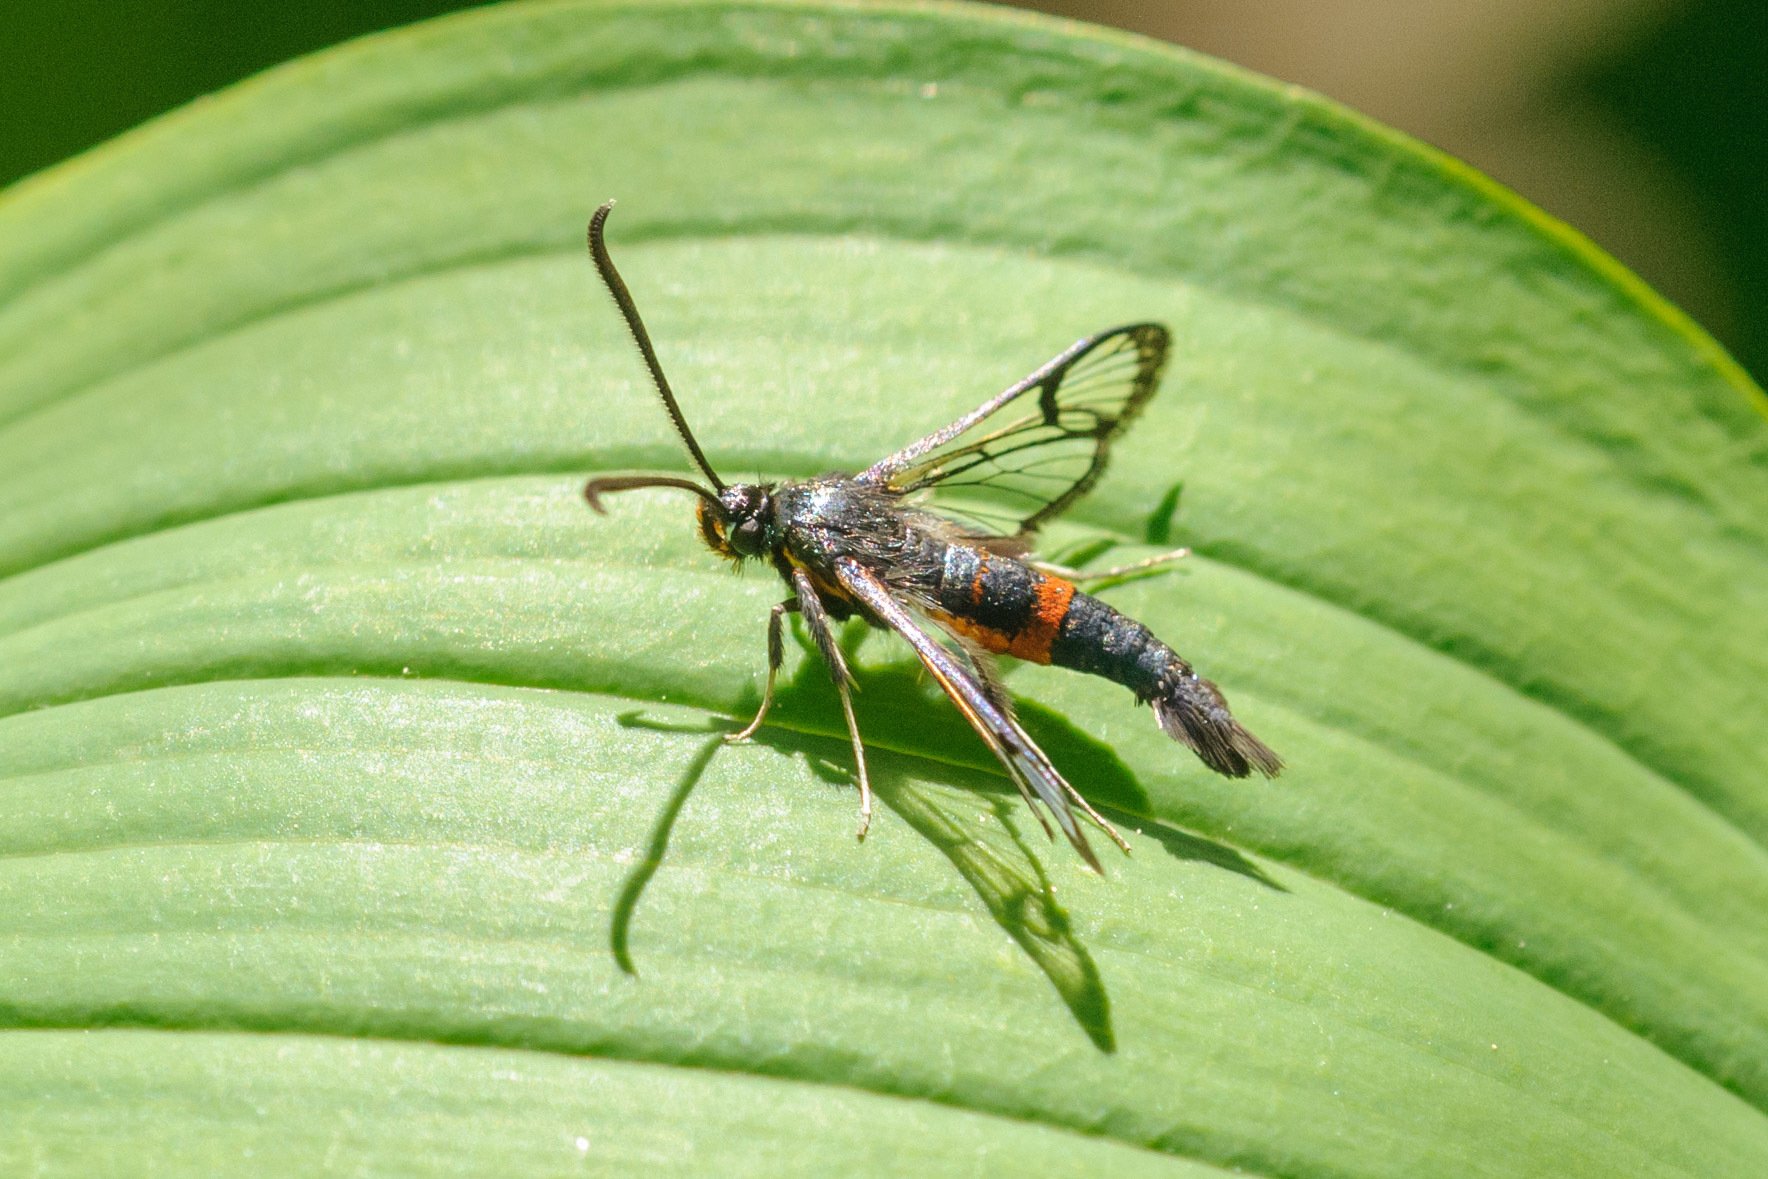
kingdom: Animalia
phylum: Arthropoda
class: Insecta
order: Lepidoptera
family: Sesiidae
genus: Synanthedon
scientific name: Synanthedon culiciformis
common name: Large red-belted clearwing
